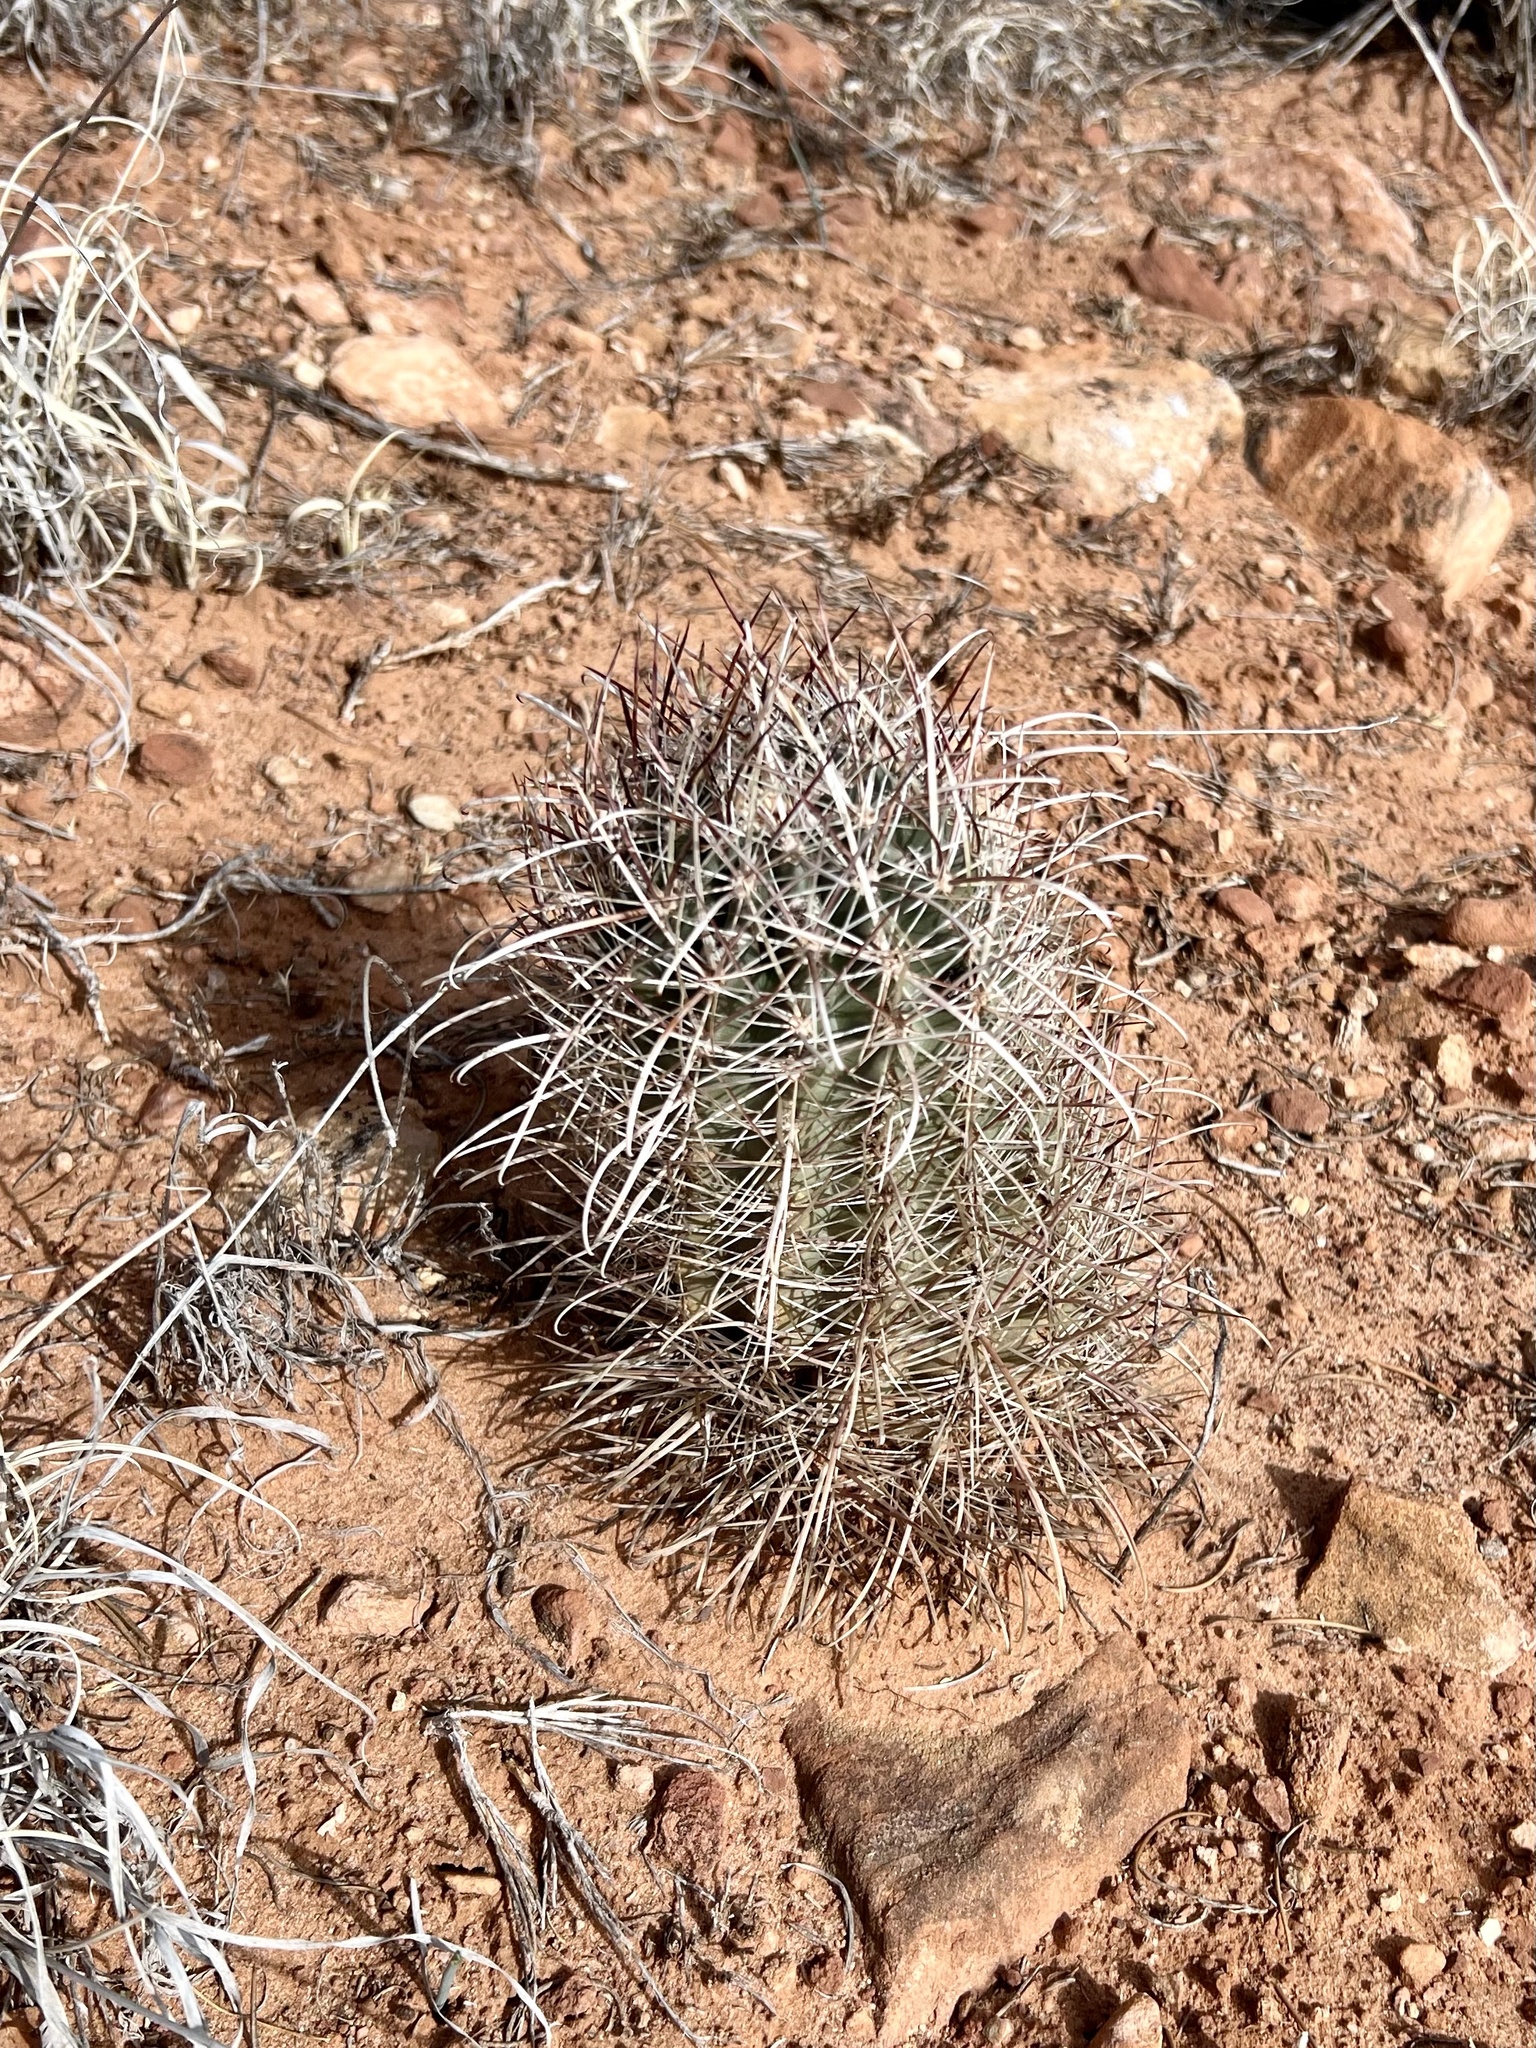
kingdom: Plantae
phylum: Tracheophyta
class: Magnoliopsida
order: Caryophyllales
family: Cactaceae
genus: Sclerocactus
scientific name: Sclerocactus parviflorus
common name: Small-flower fishhook cactus
